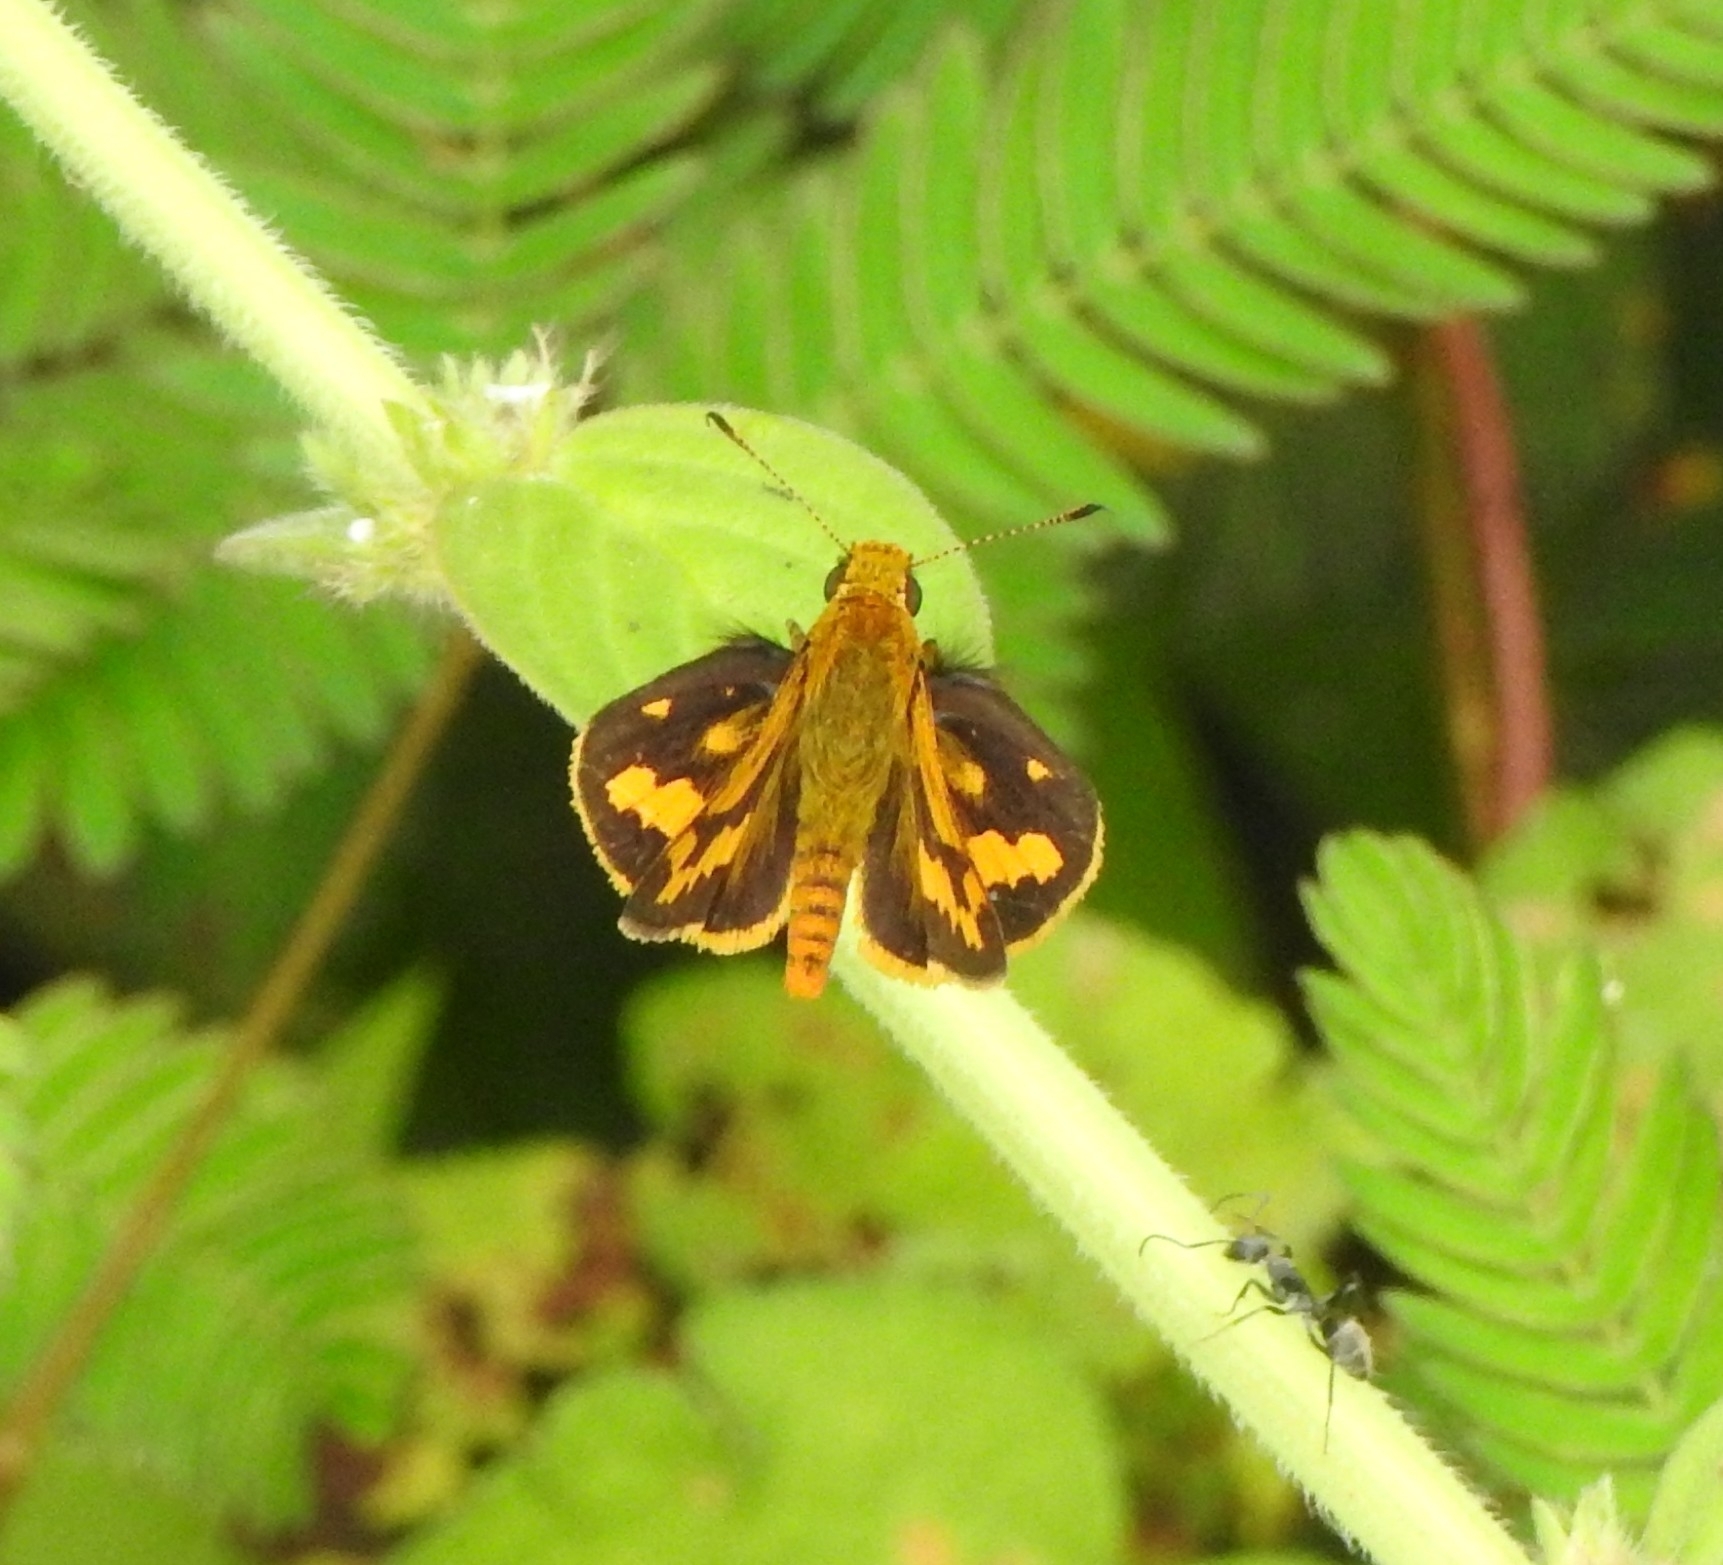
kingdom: Animalia
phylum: Arthropoda
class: Insecta
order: Lepidoptera
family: Hesperiidae
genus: Potanthus
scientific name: Potanthus pava
